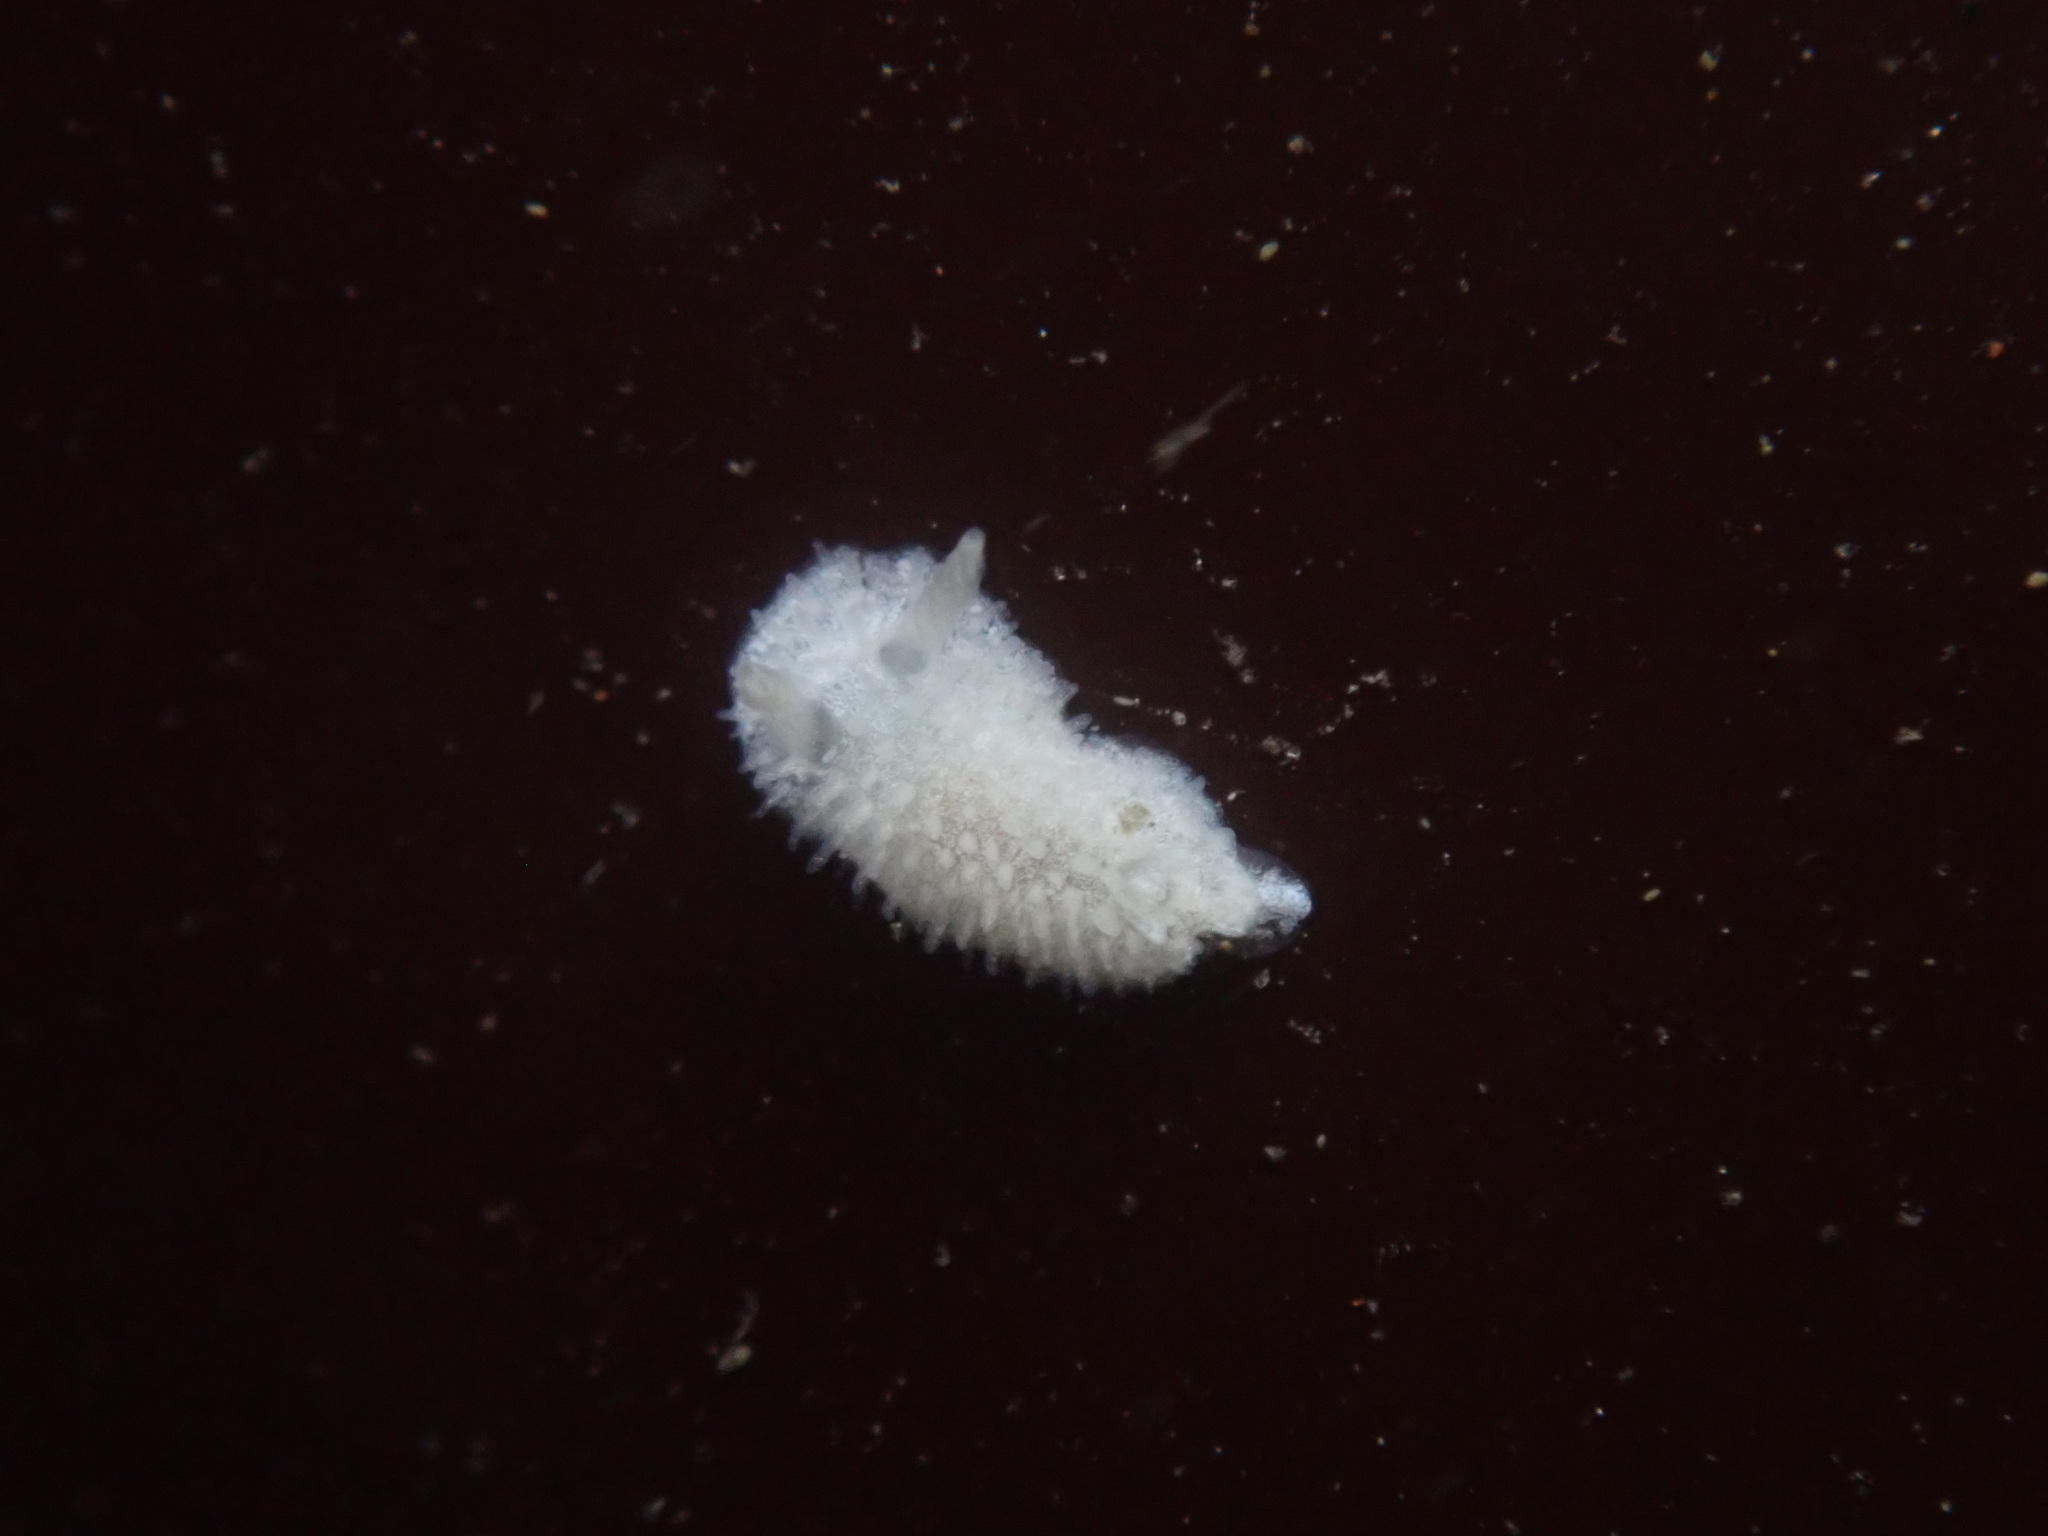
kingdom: Animalia
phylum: Mollusca
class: Gastropoda
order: Nudibranchia
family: Calycidorididae
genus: Diaphorodoris
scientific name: Diaphorodoris lirulatocauda
